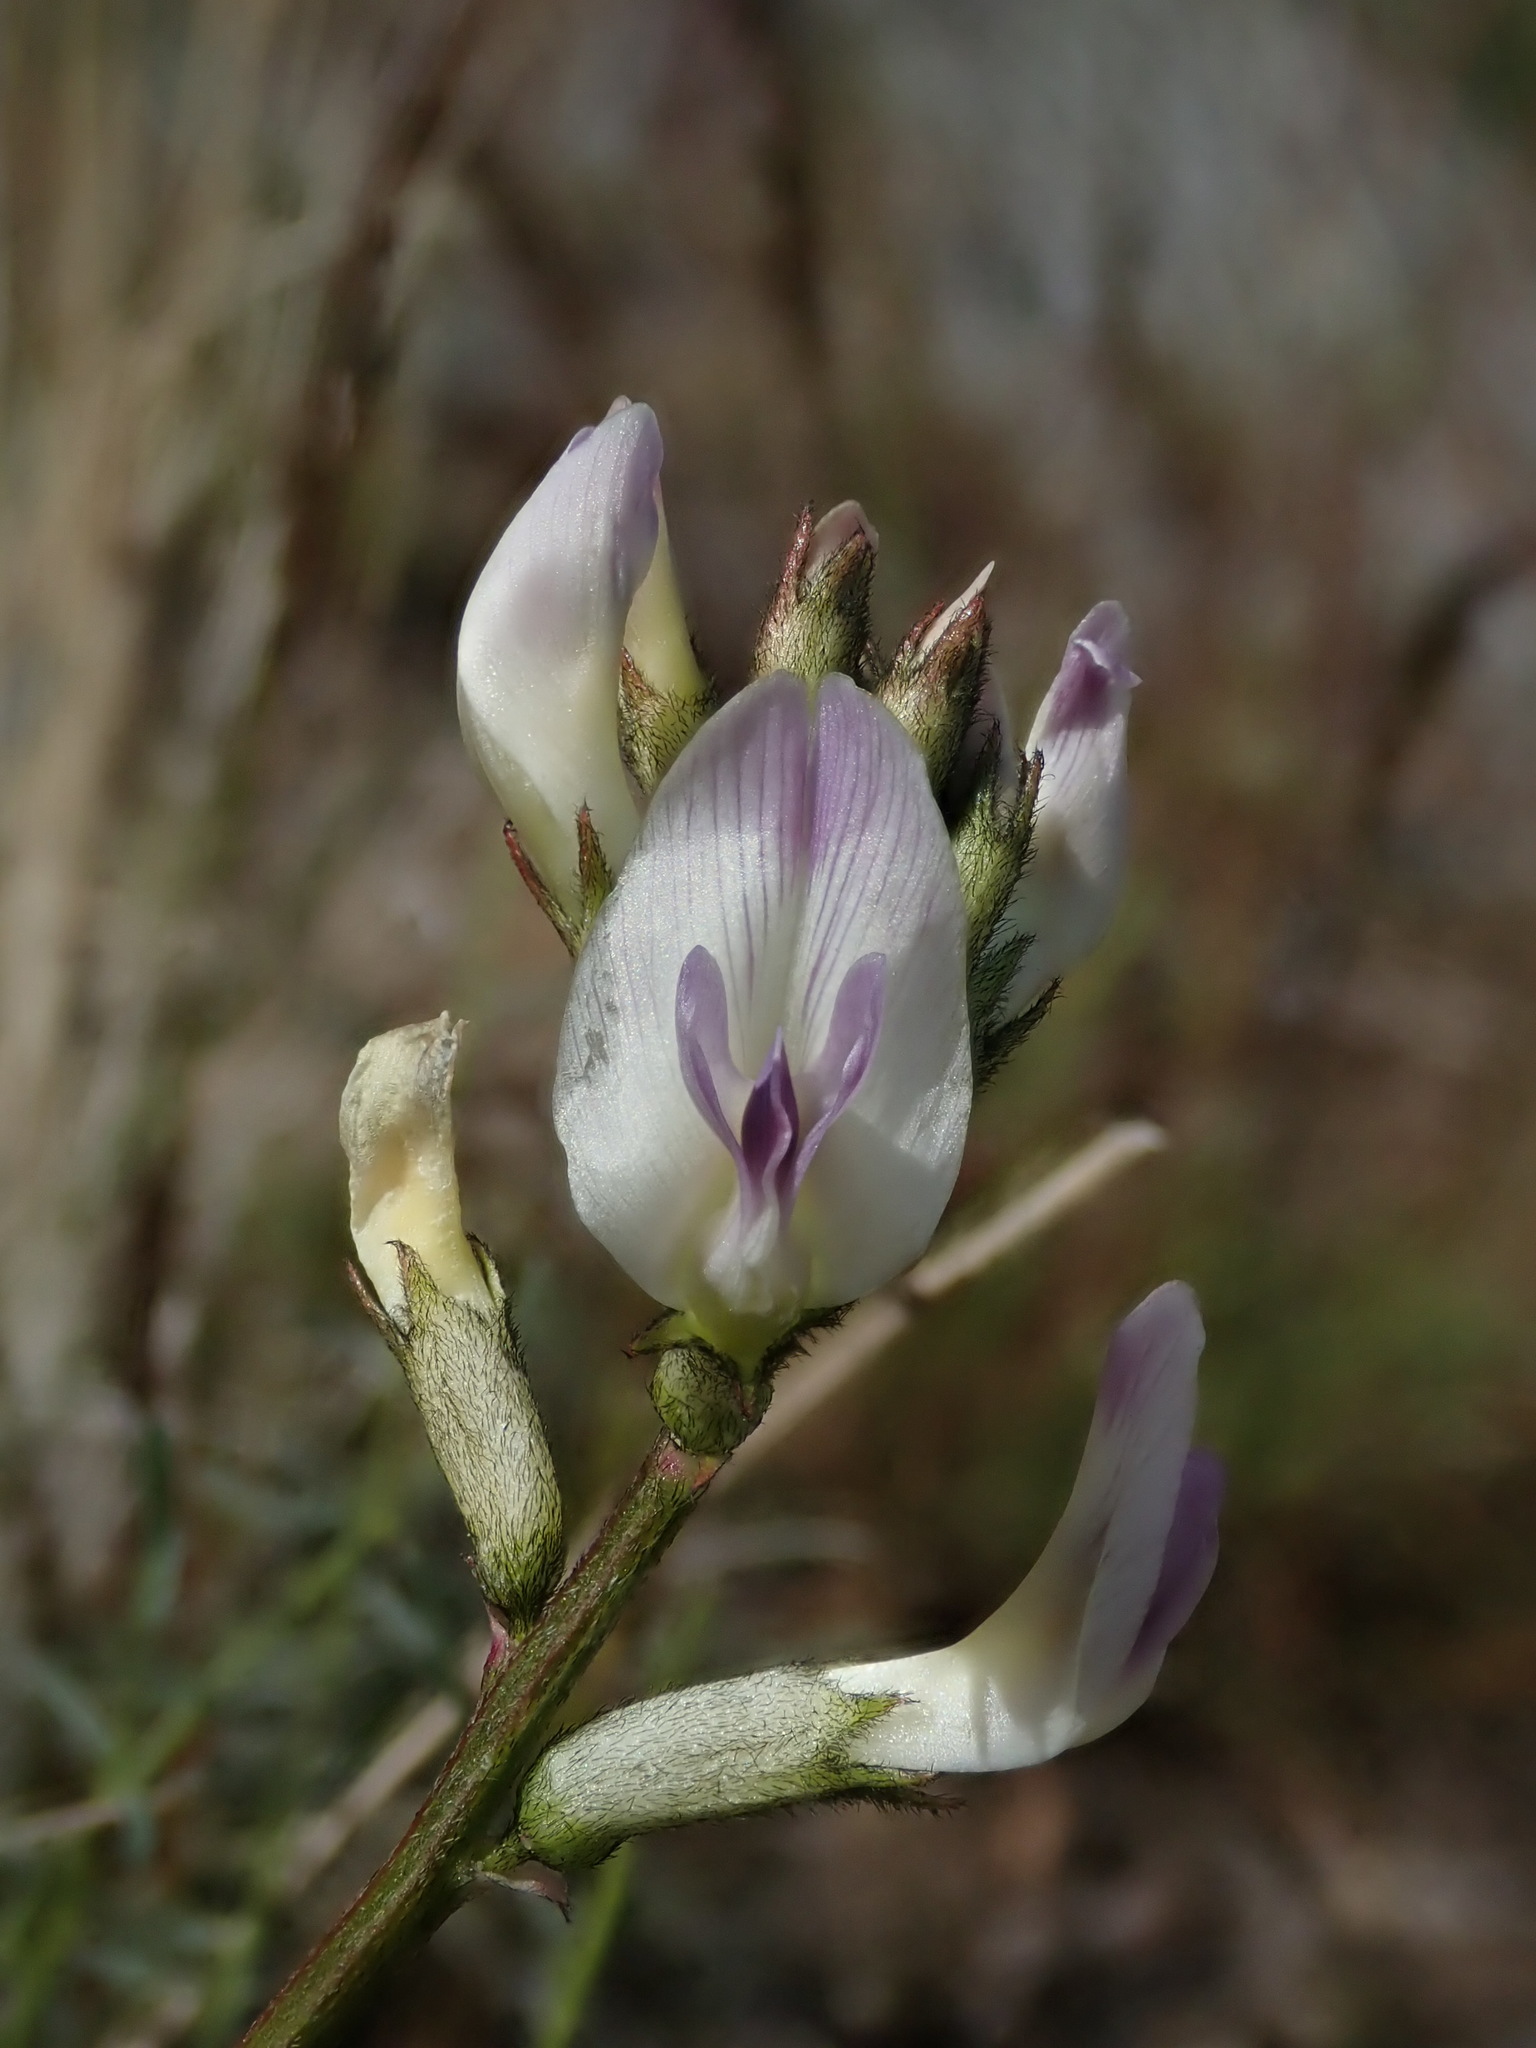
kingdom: Plantae
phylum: Tracheophyta
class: Magnoliopsida
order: Fabales
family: Fabaceae
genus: Astragalus
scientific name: Astragalus conjunctus
